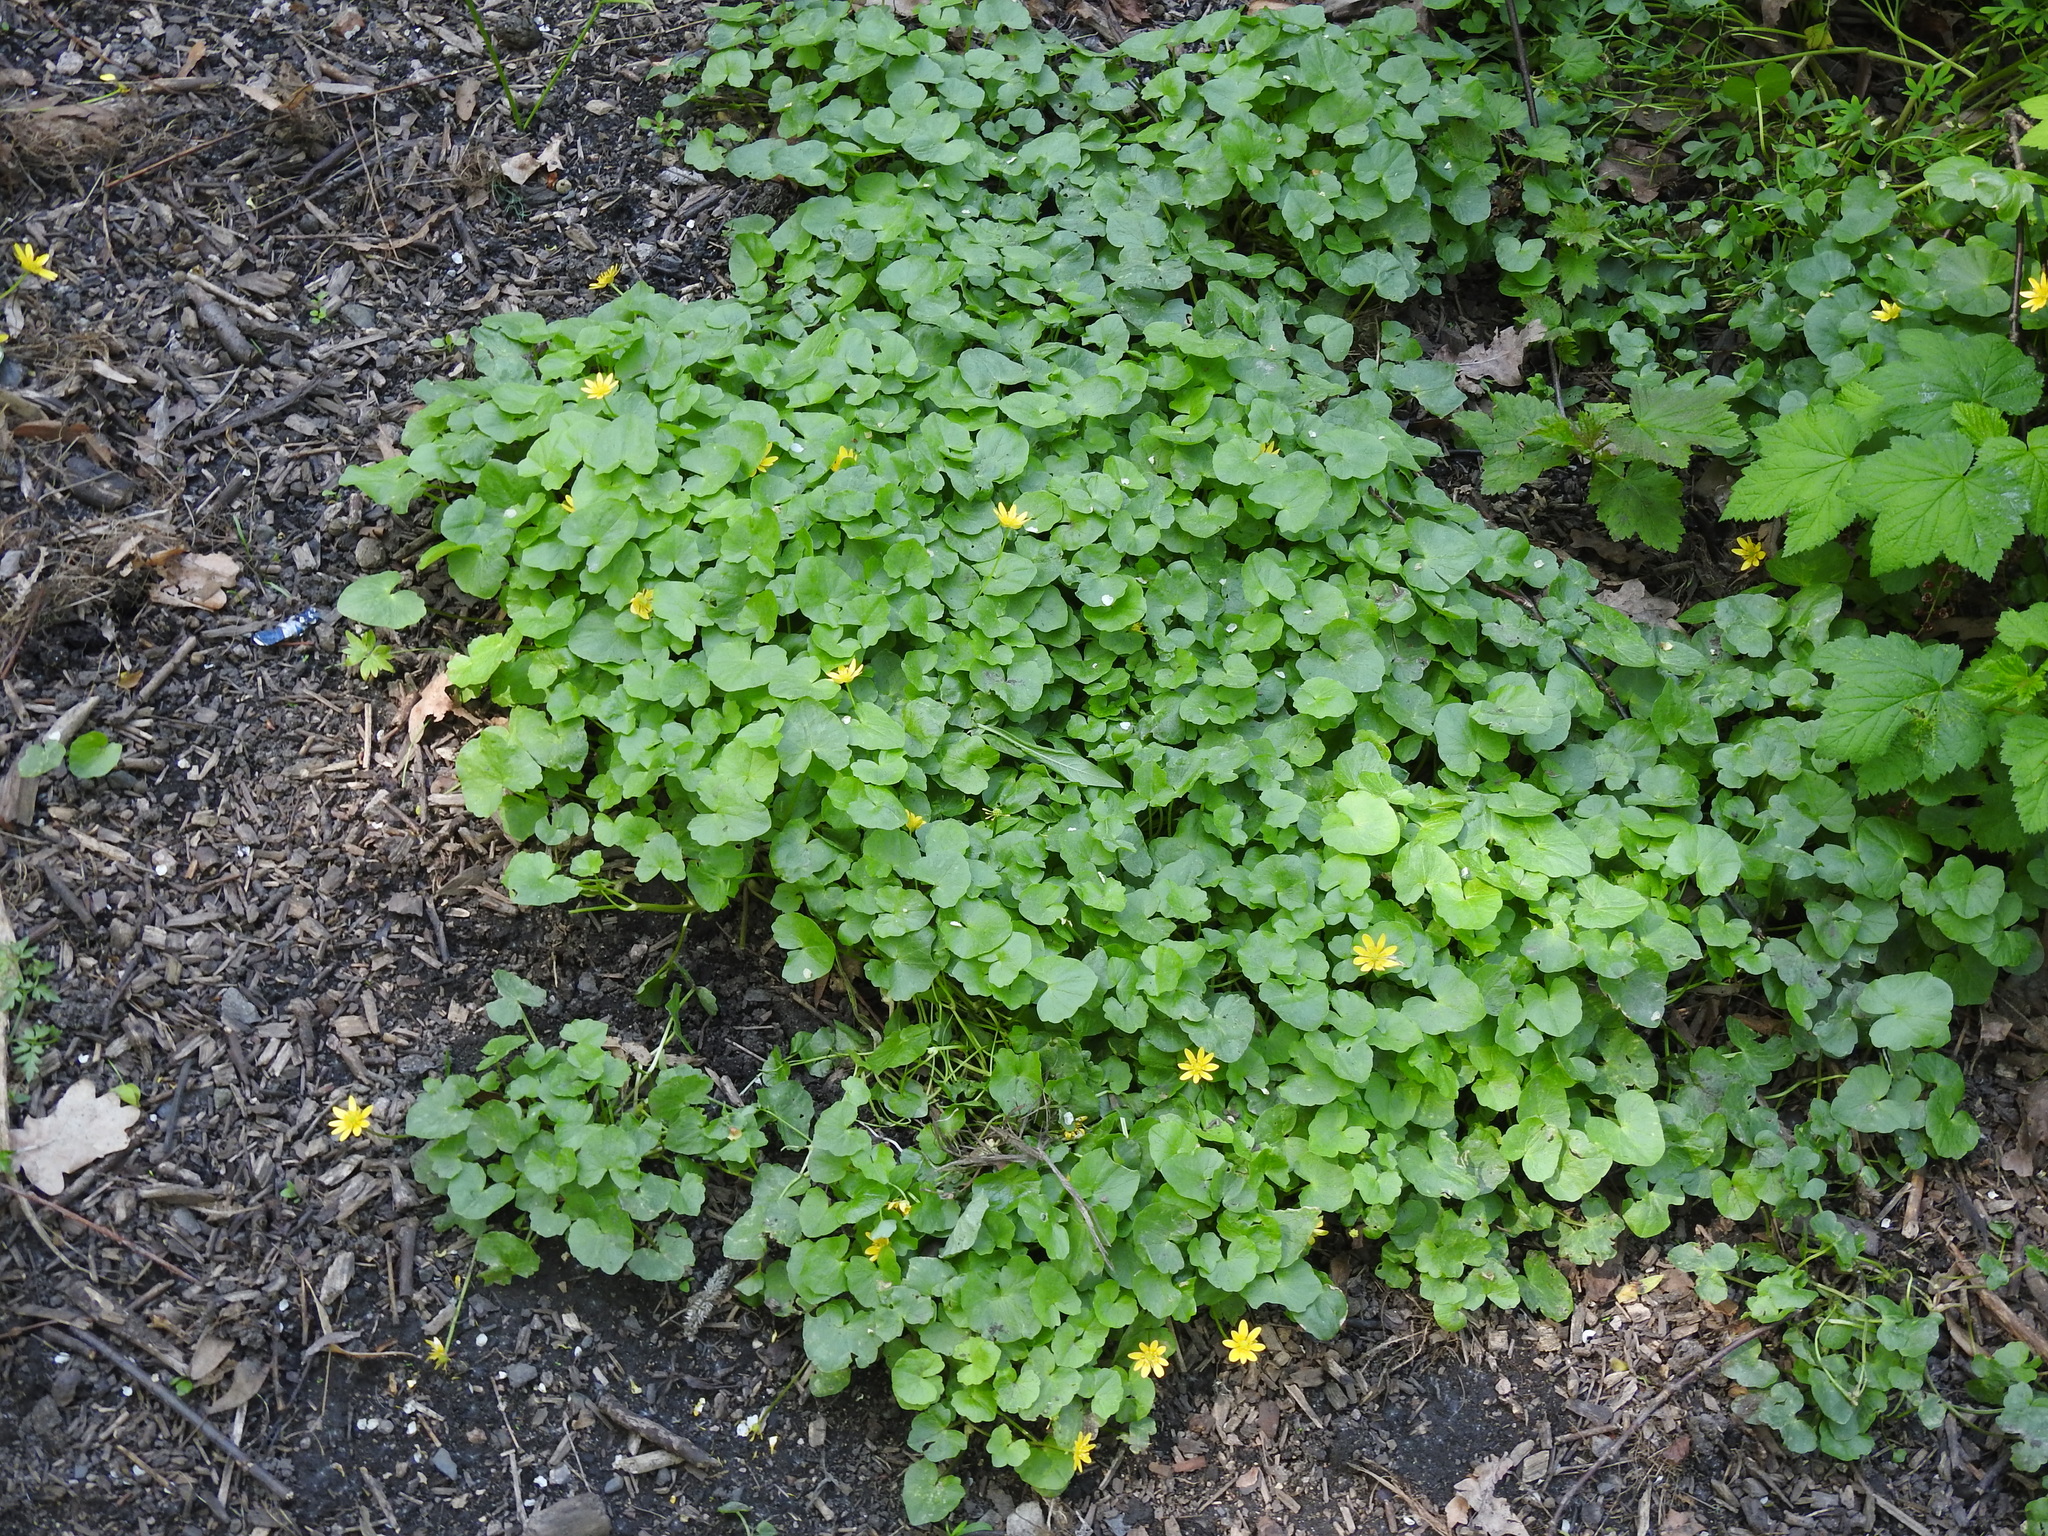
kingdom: Plantae
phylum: Tracheophyta
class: Magnoliopsida
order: Ranunculales
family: Ranunculaceae
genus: Ficaria
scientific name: Ficaria verna
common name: Lesser celandine
